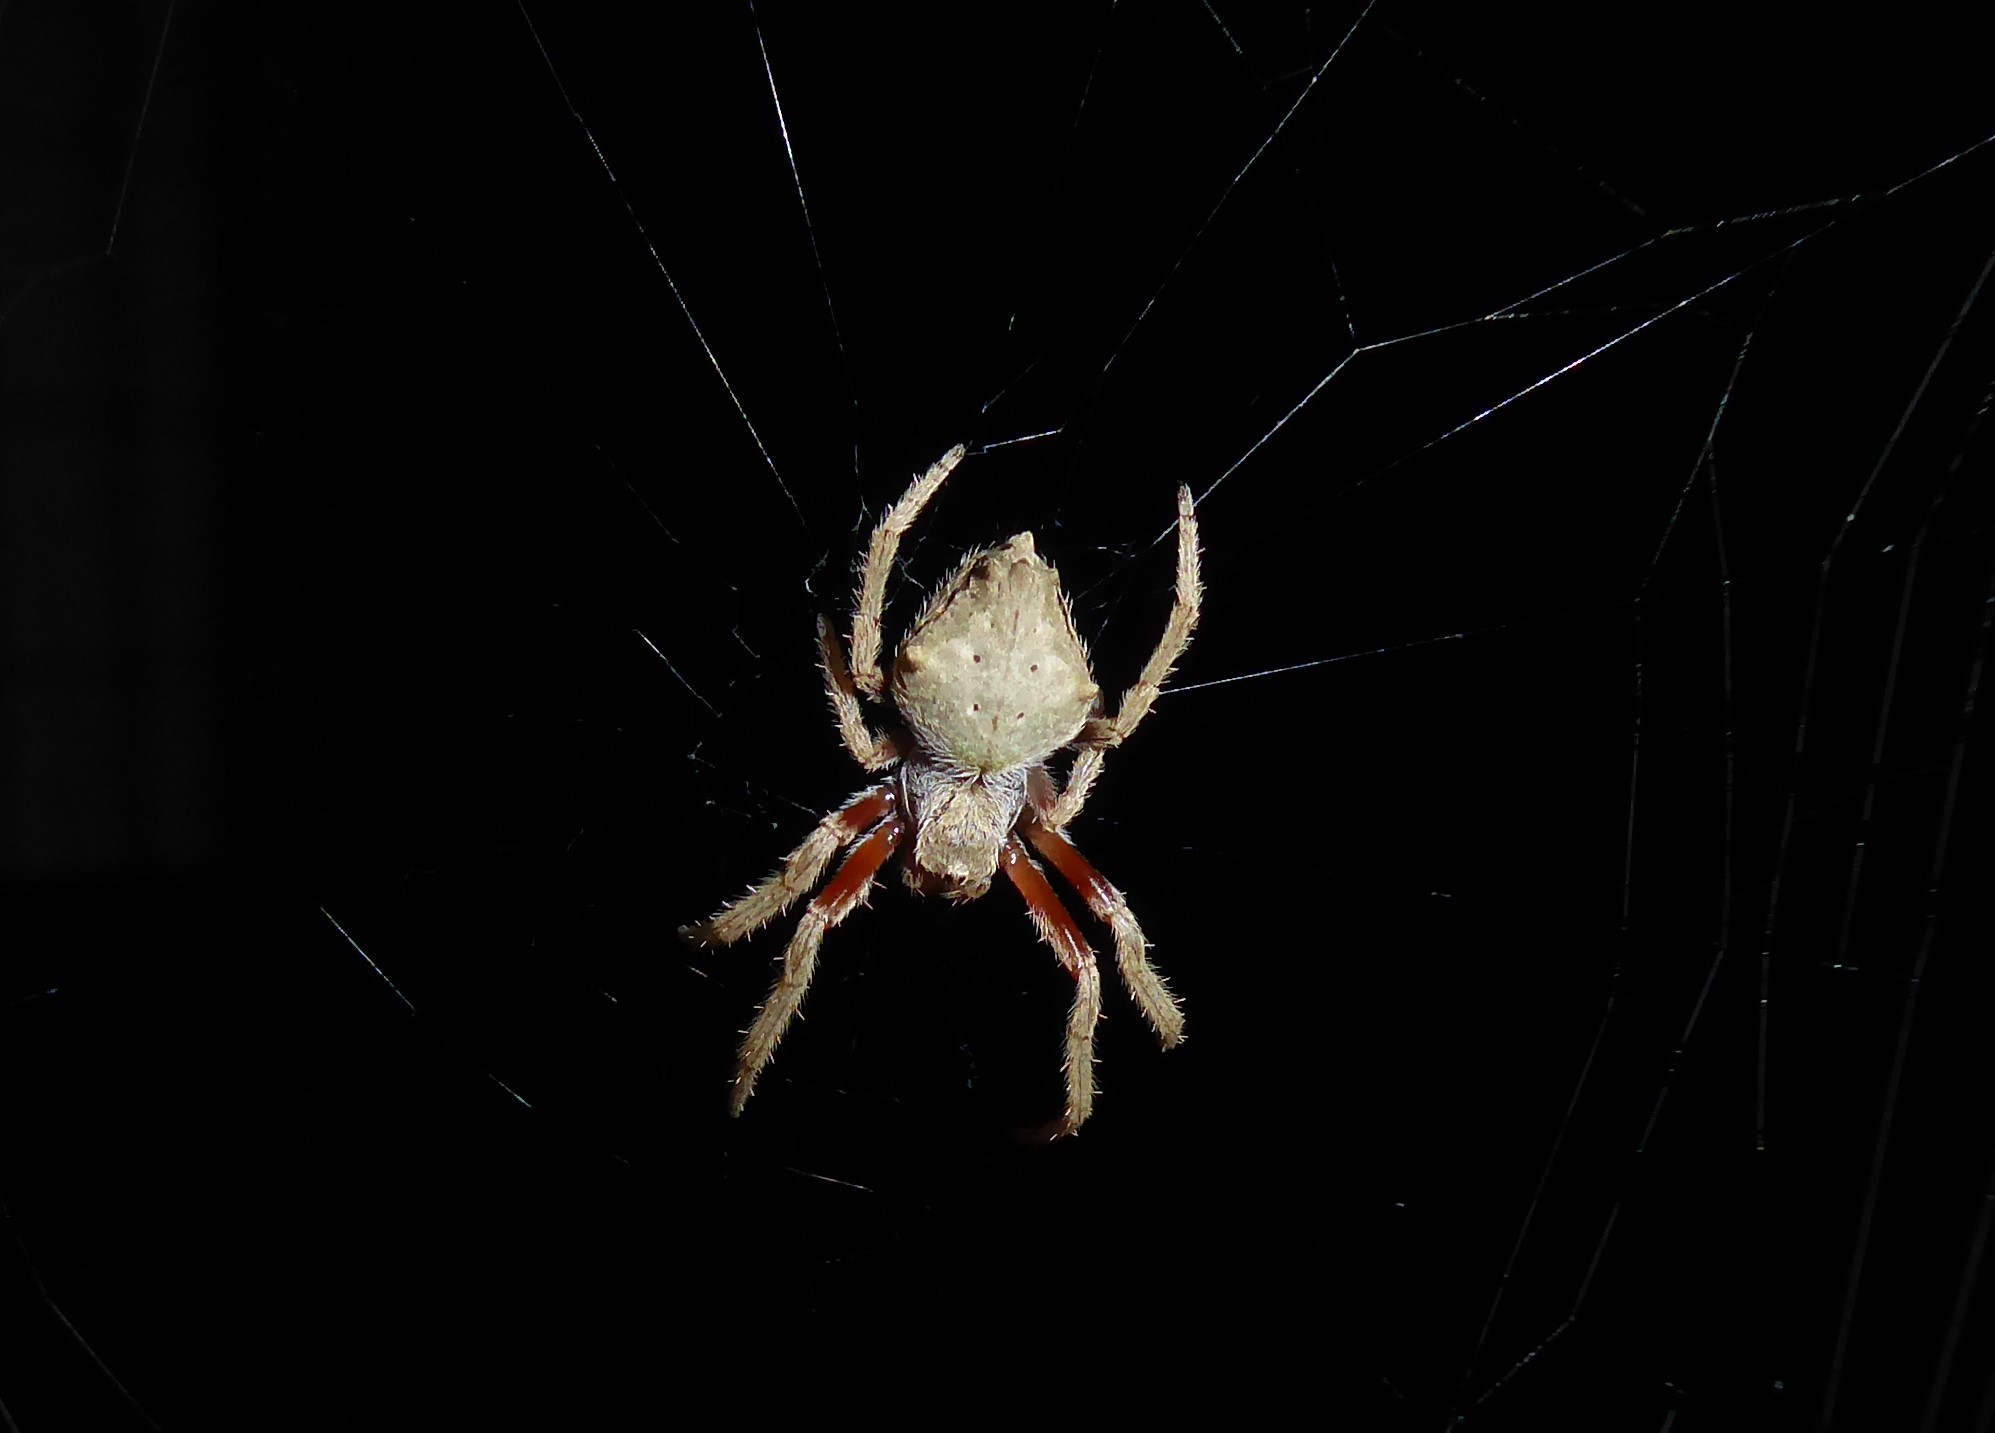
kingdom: Animalia
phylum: Arthropoda
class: Arachnida
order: Araneae
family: Araneidae
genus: Eriophora
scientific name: Eriophora pustulosa
